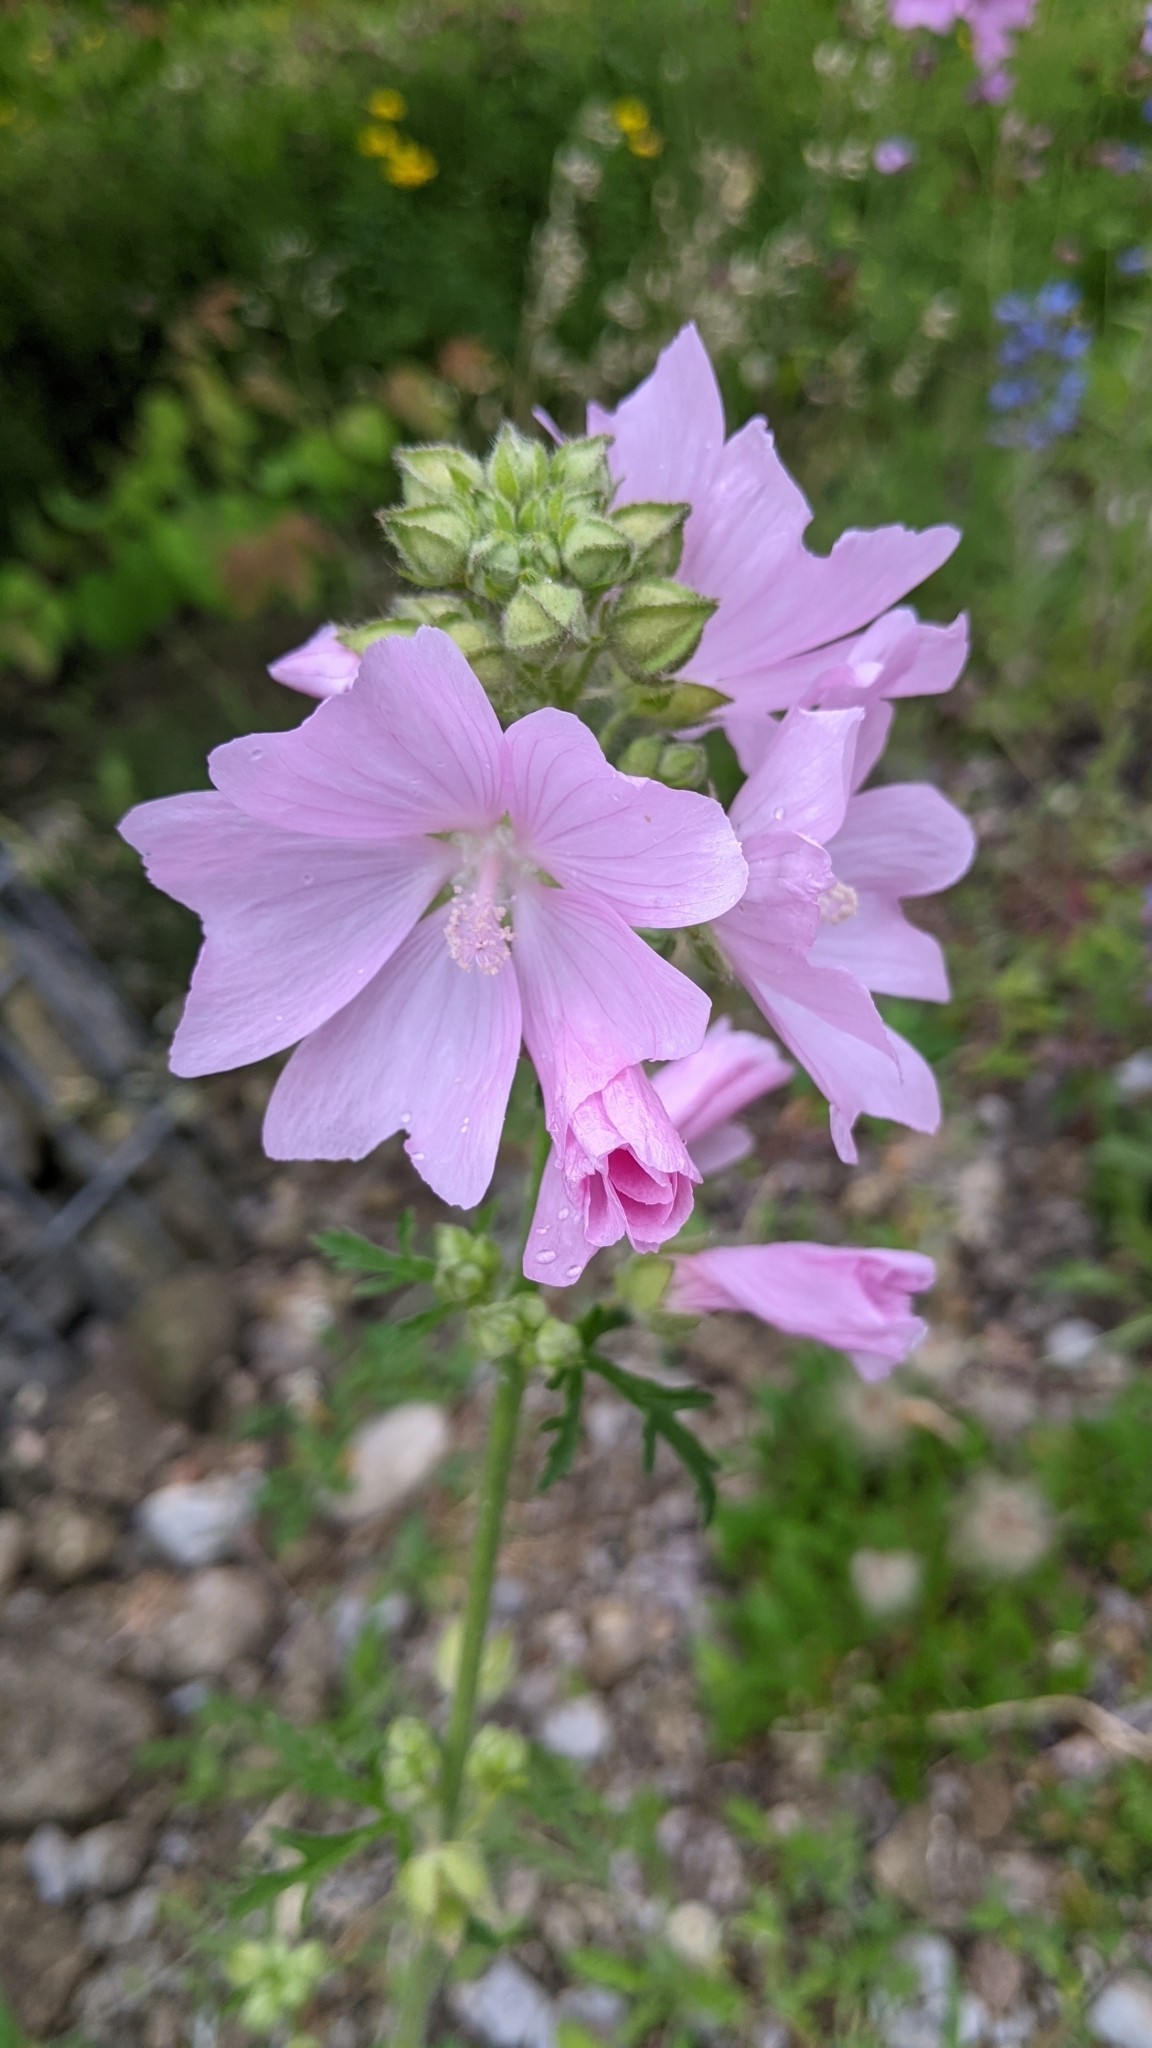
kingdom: Plantae
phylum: Tracheophyta
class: Magnoliopsida
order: Malvales
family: Malvaceae
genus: Malva
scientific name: Malva alcea
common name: Greater musk-mallow
